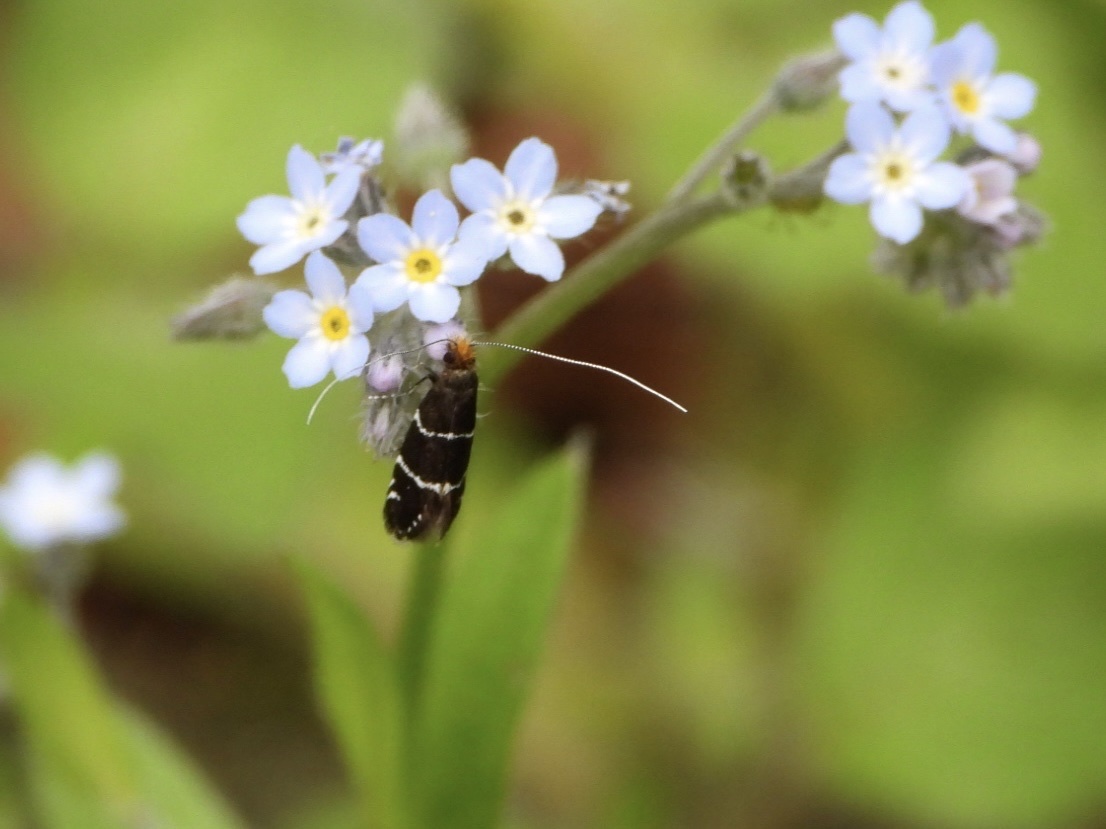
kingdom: Animalia
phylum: Arthropoda
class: Insecta
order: Lepidoptera
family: Adelidae
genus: Adela
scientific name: Adela septentrionella
